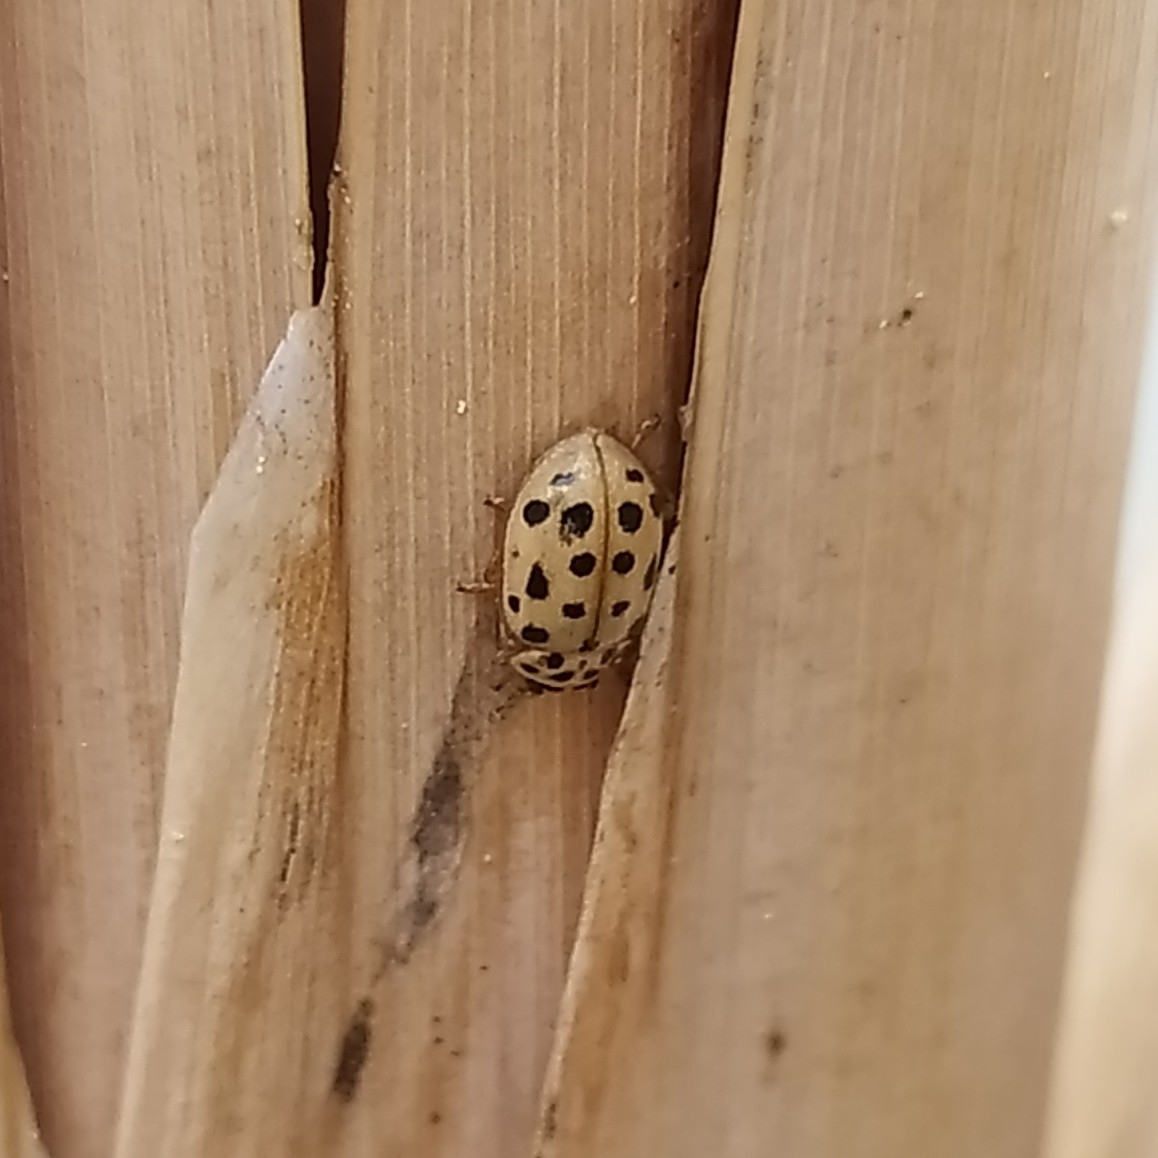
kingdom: Animalia
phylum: Arthropoda
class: Insecta
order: Coleoptera
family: Coccinellidae
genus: Anisosticta
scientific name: Anisosticta novemdecimpunctata
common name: Water ladybird
